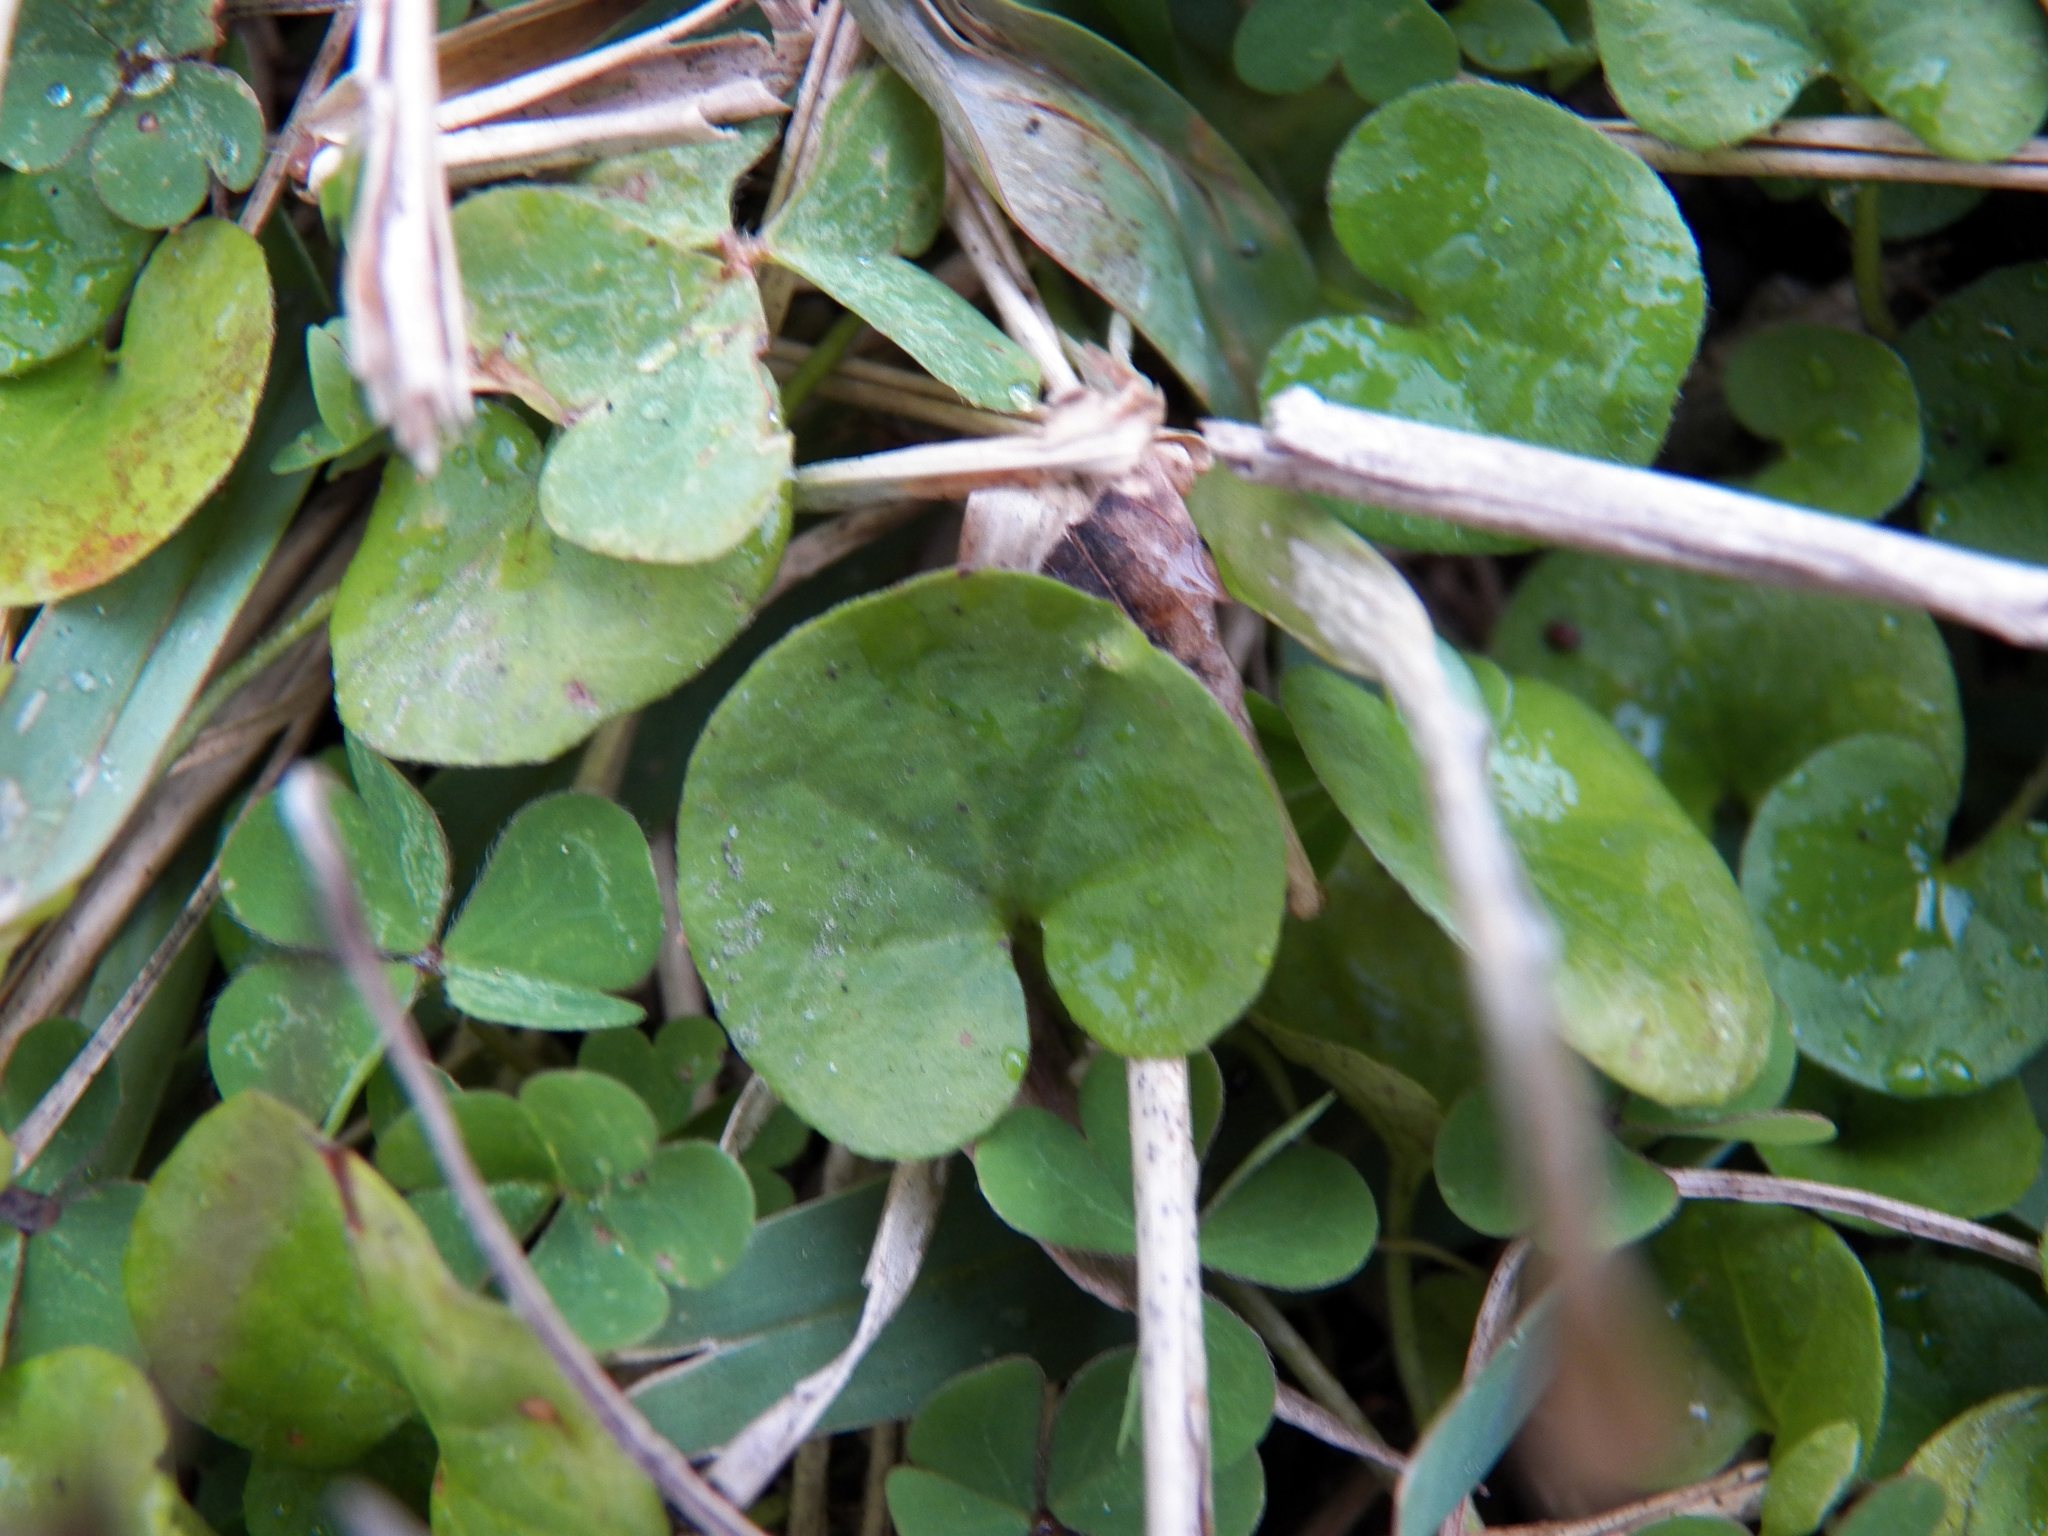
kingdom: Plantae
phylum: Tracheophyta
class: Magnoliopsida
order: Solanales
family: Convolvulaceae
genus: Dichondra
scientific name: Dichondra carolinensis
